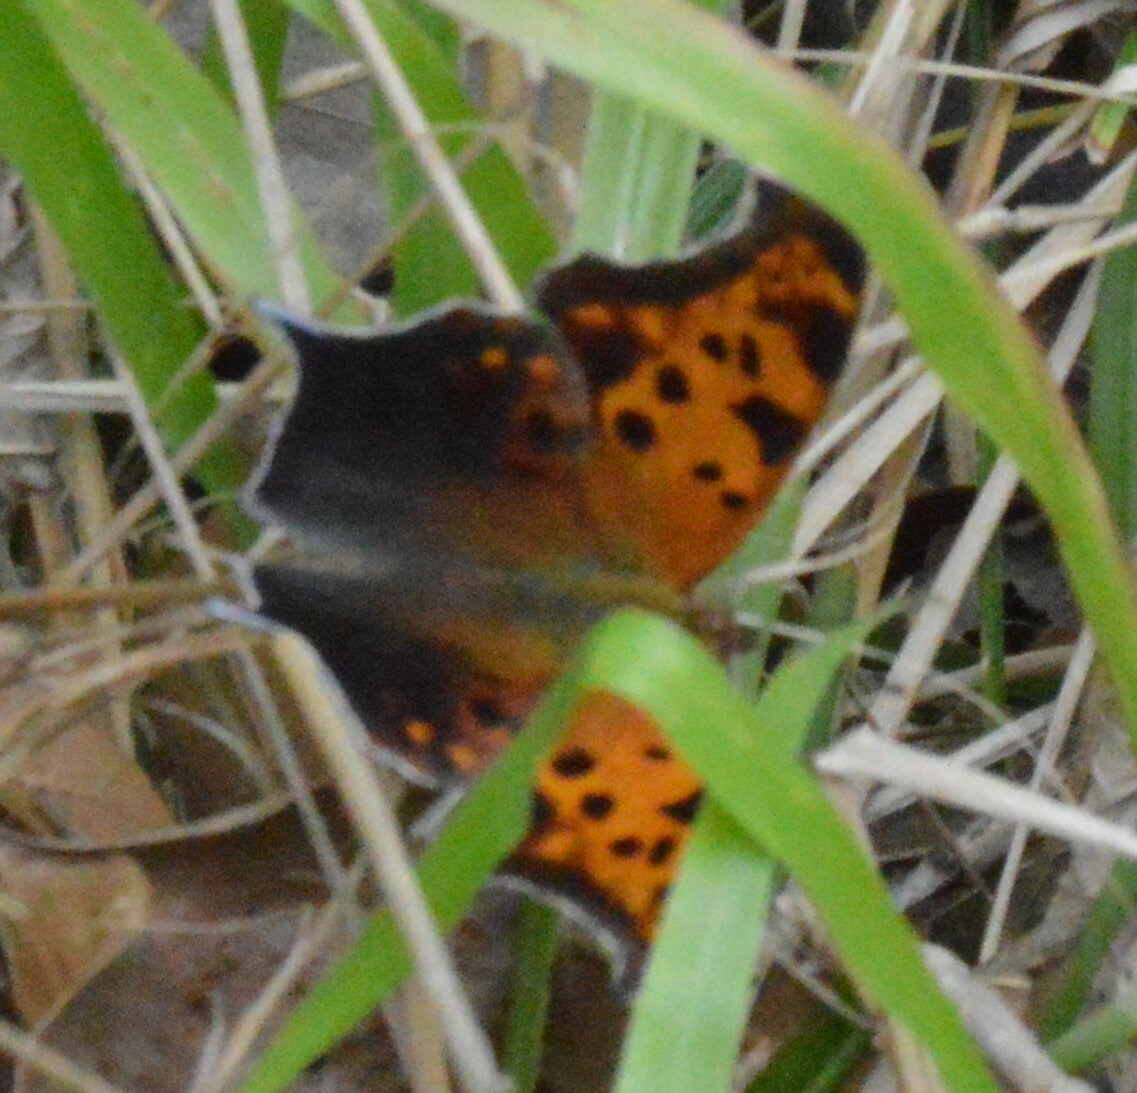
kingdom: Animalia
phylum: Arthropoda
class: Insecta
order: Lepidoptera
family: Nymphalidae
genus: Polygonia
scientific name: Polygonia interrogationis
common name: Question mark
